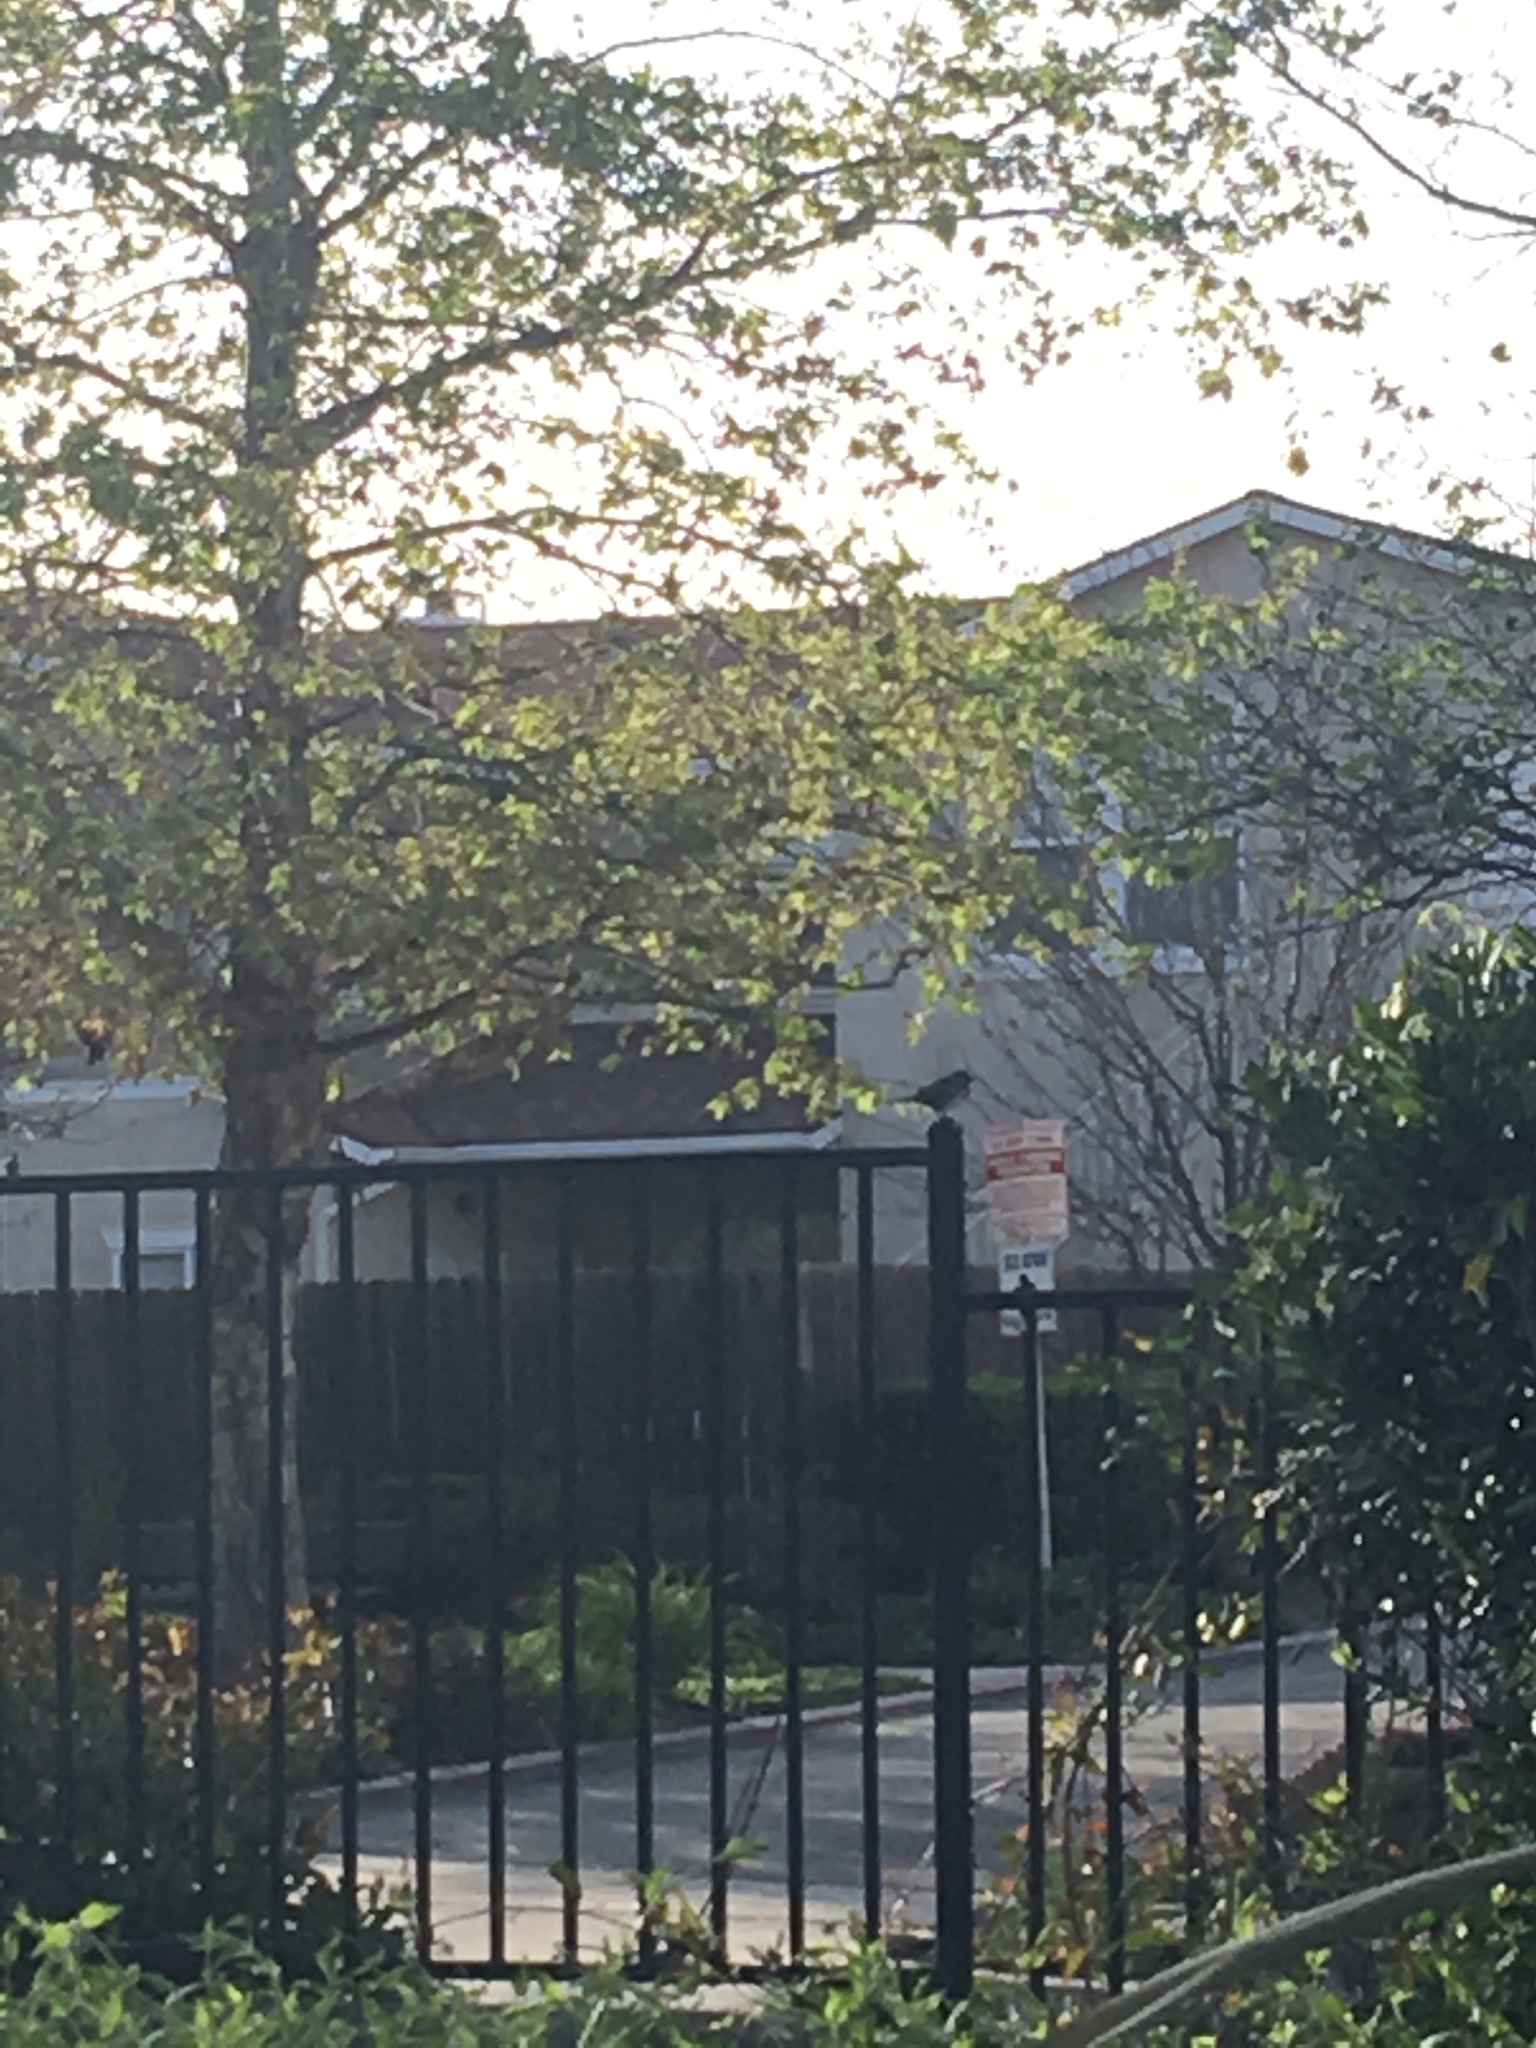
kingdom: Animalia
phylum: Chordata
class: Aves
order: Passeriformes
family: Passerellidae
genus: Melospiza
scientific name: Melospiza melodia
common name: Song sparrow
